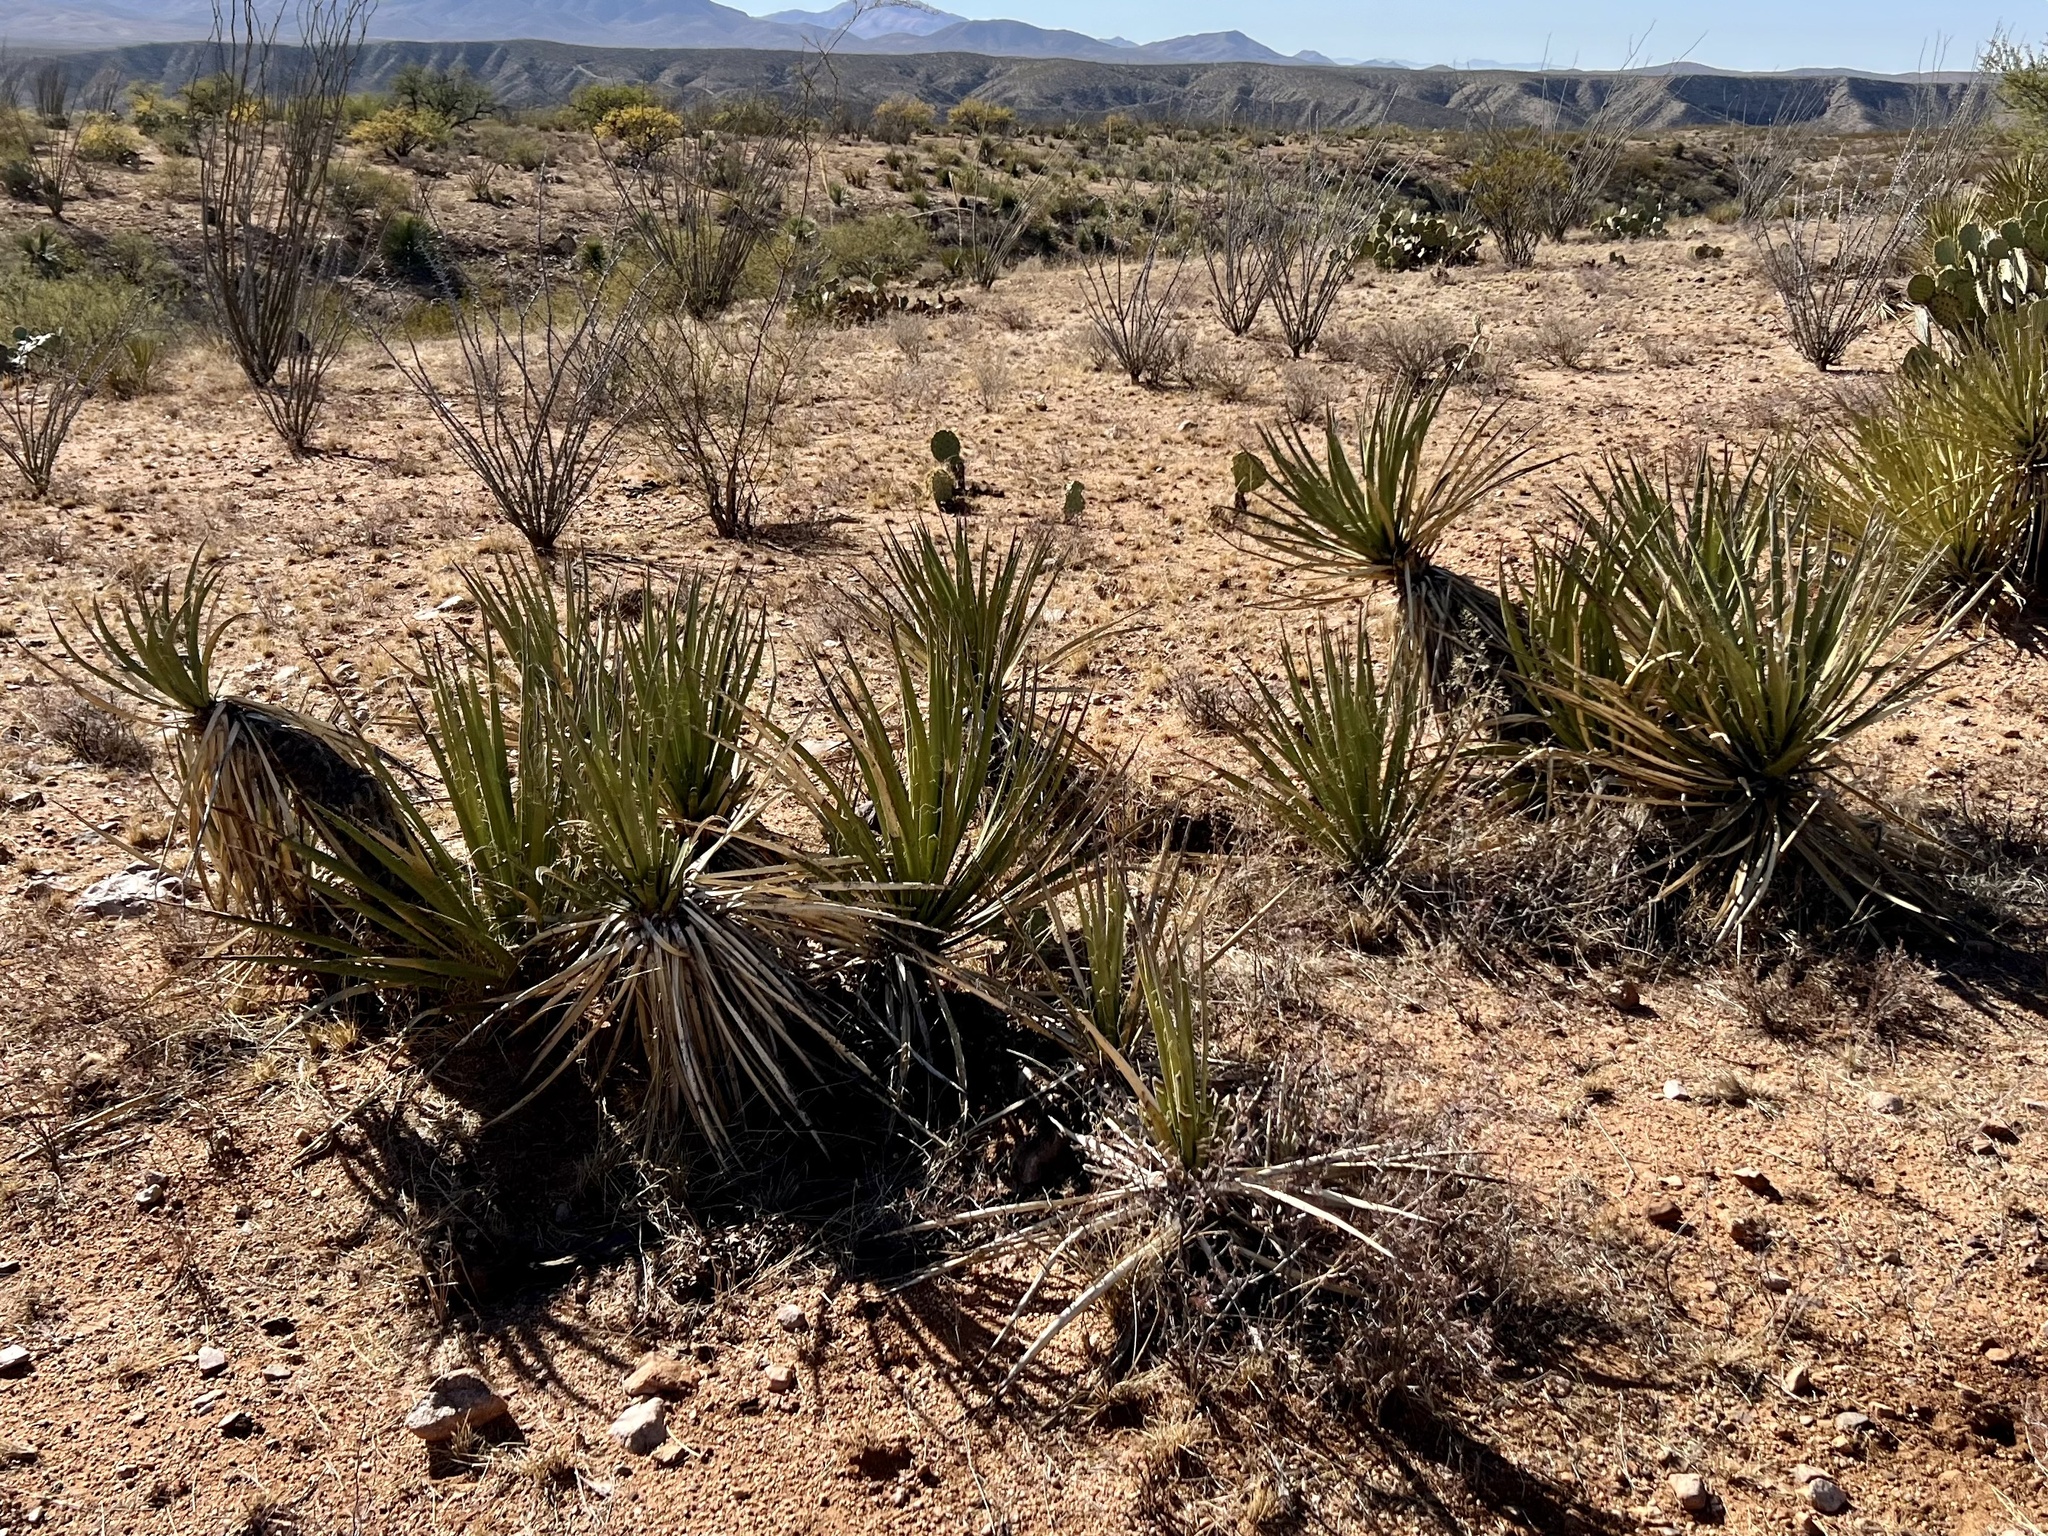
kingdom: Plantae
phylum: Tracheophyta
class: Liliopsida
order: Asparagales
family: Asparagaceae
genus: Yucca
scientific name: Yucca baccata
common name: Banana yucca
